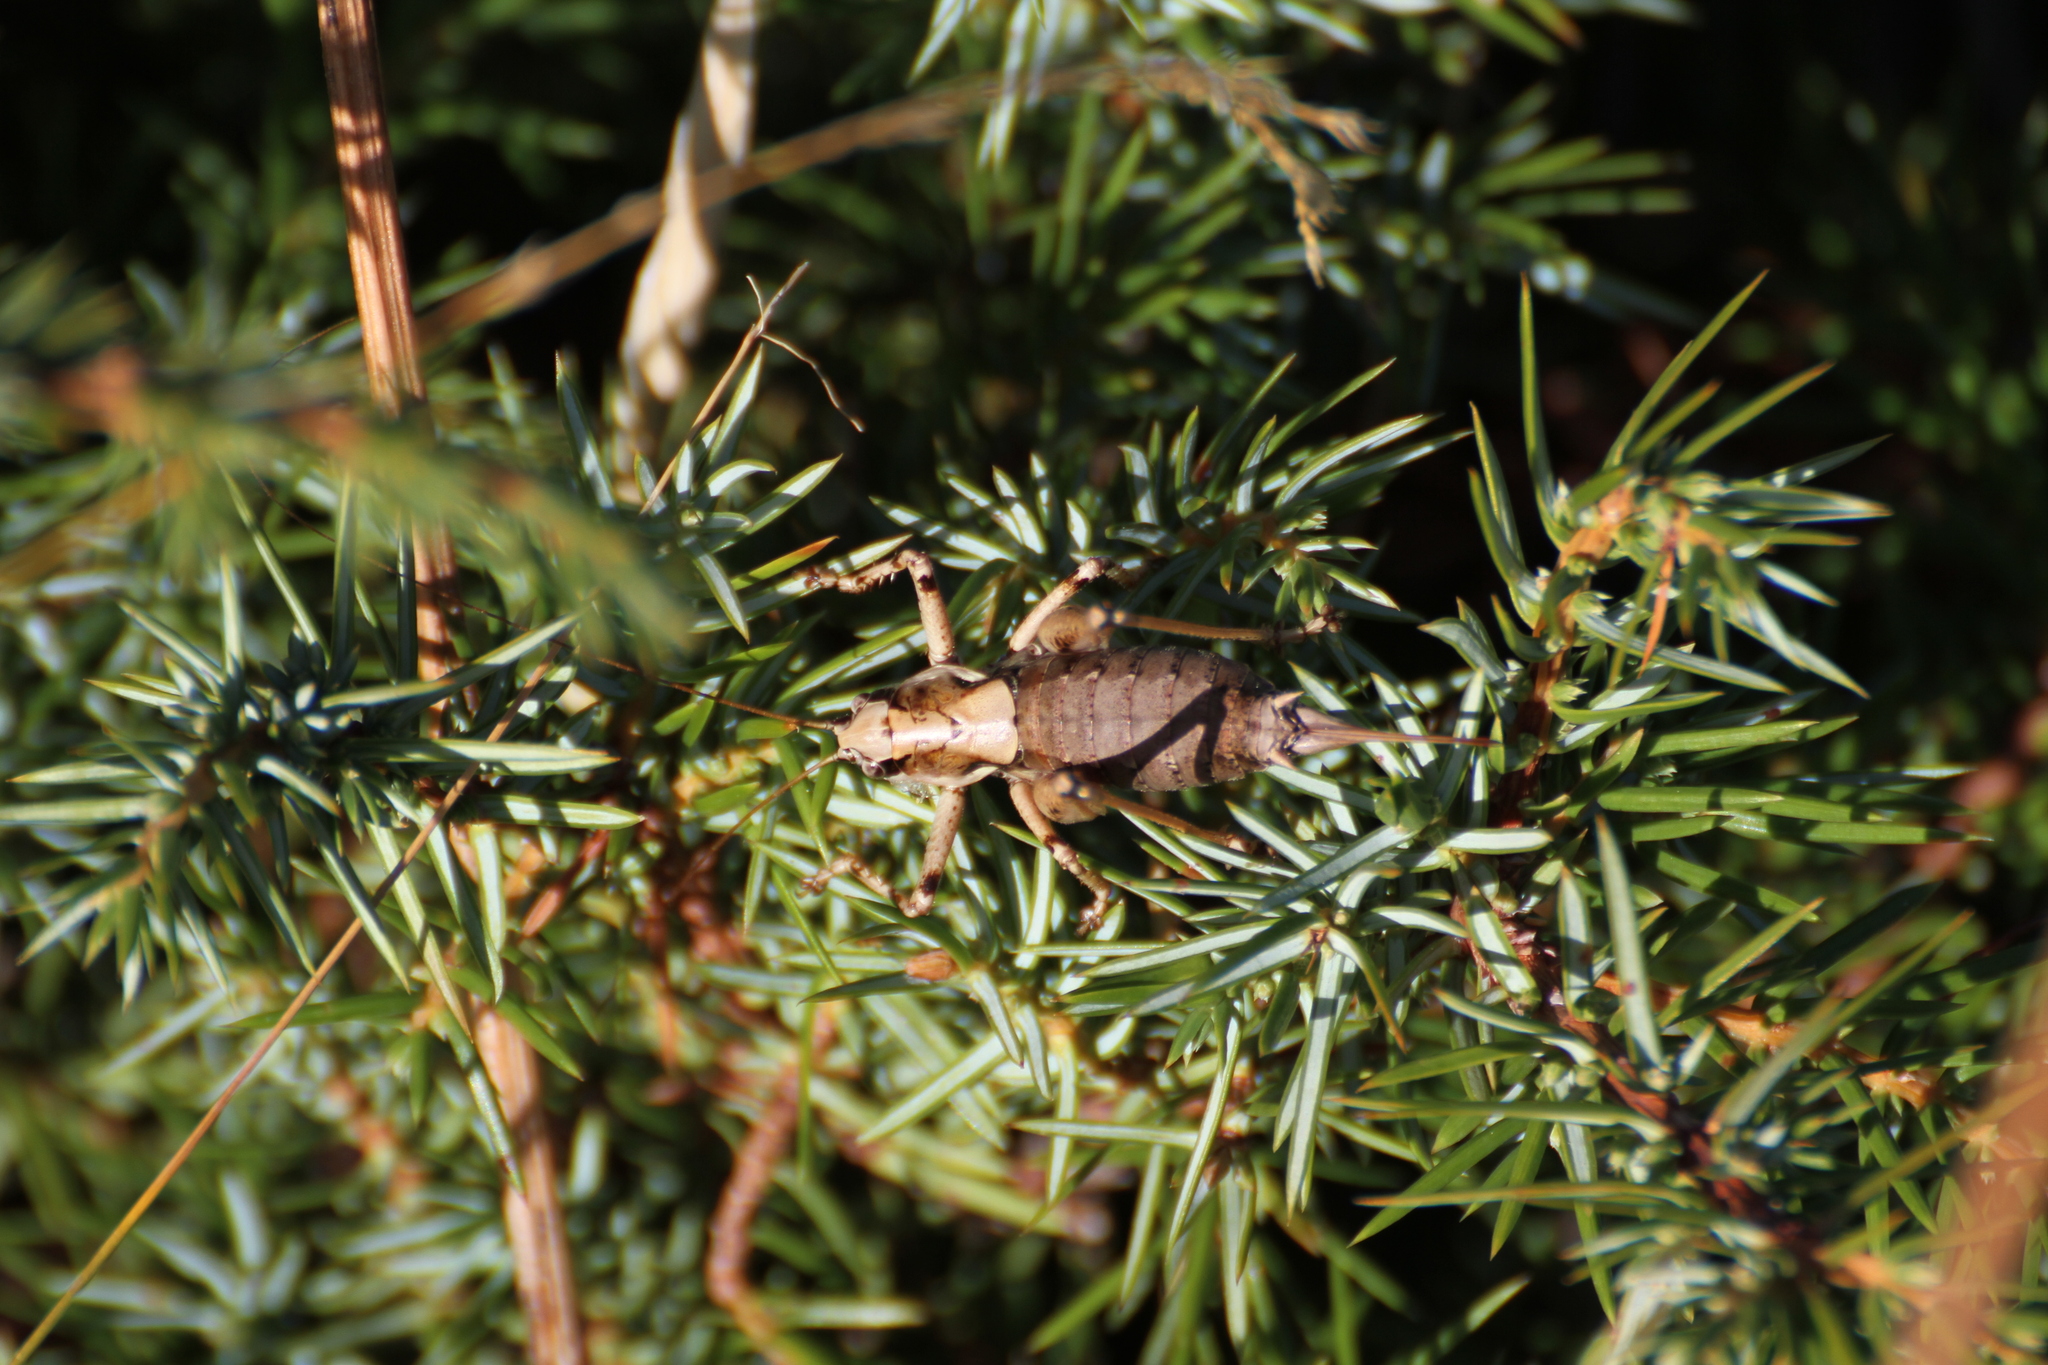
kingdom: Animalia
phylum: Arthropoda
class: Insecta
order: Orthoptera
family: Tettigoniidae
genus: Antaxius
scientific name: Antaxius pedestris
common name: Common mountain bush-cricket
